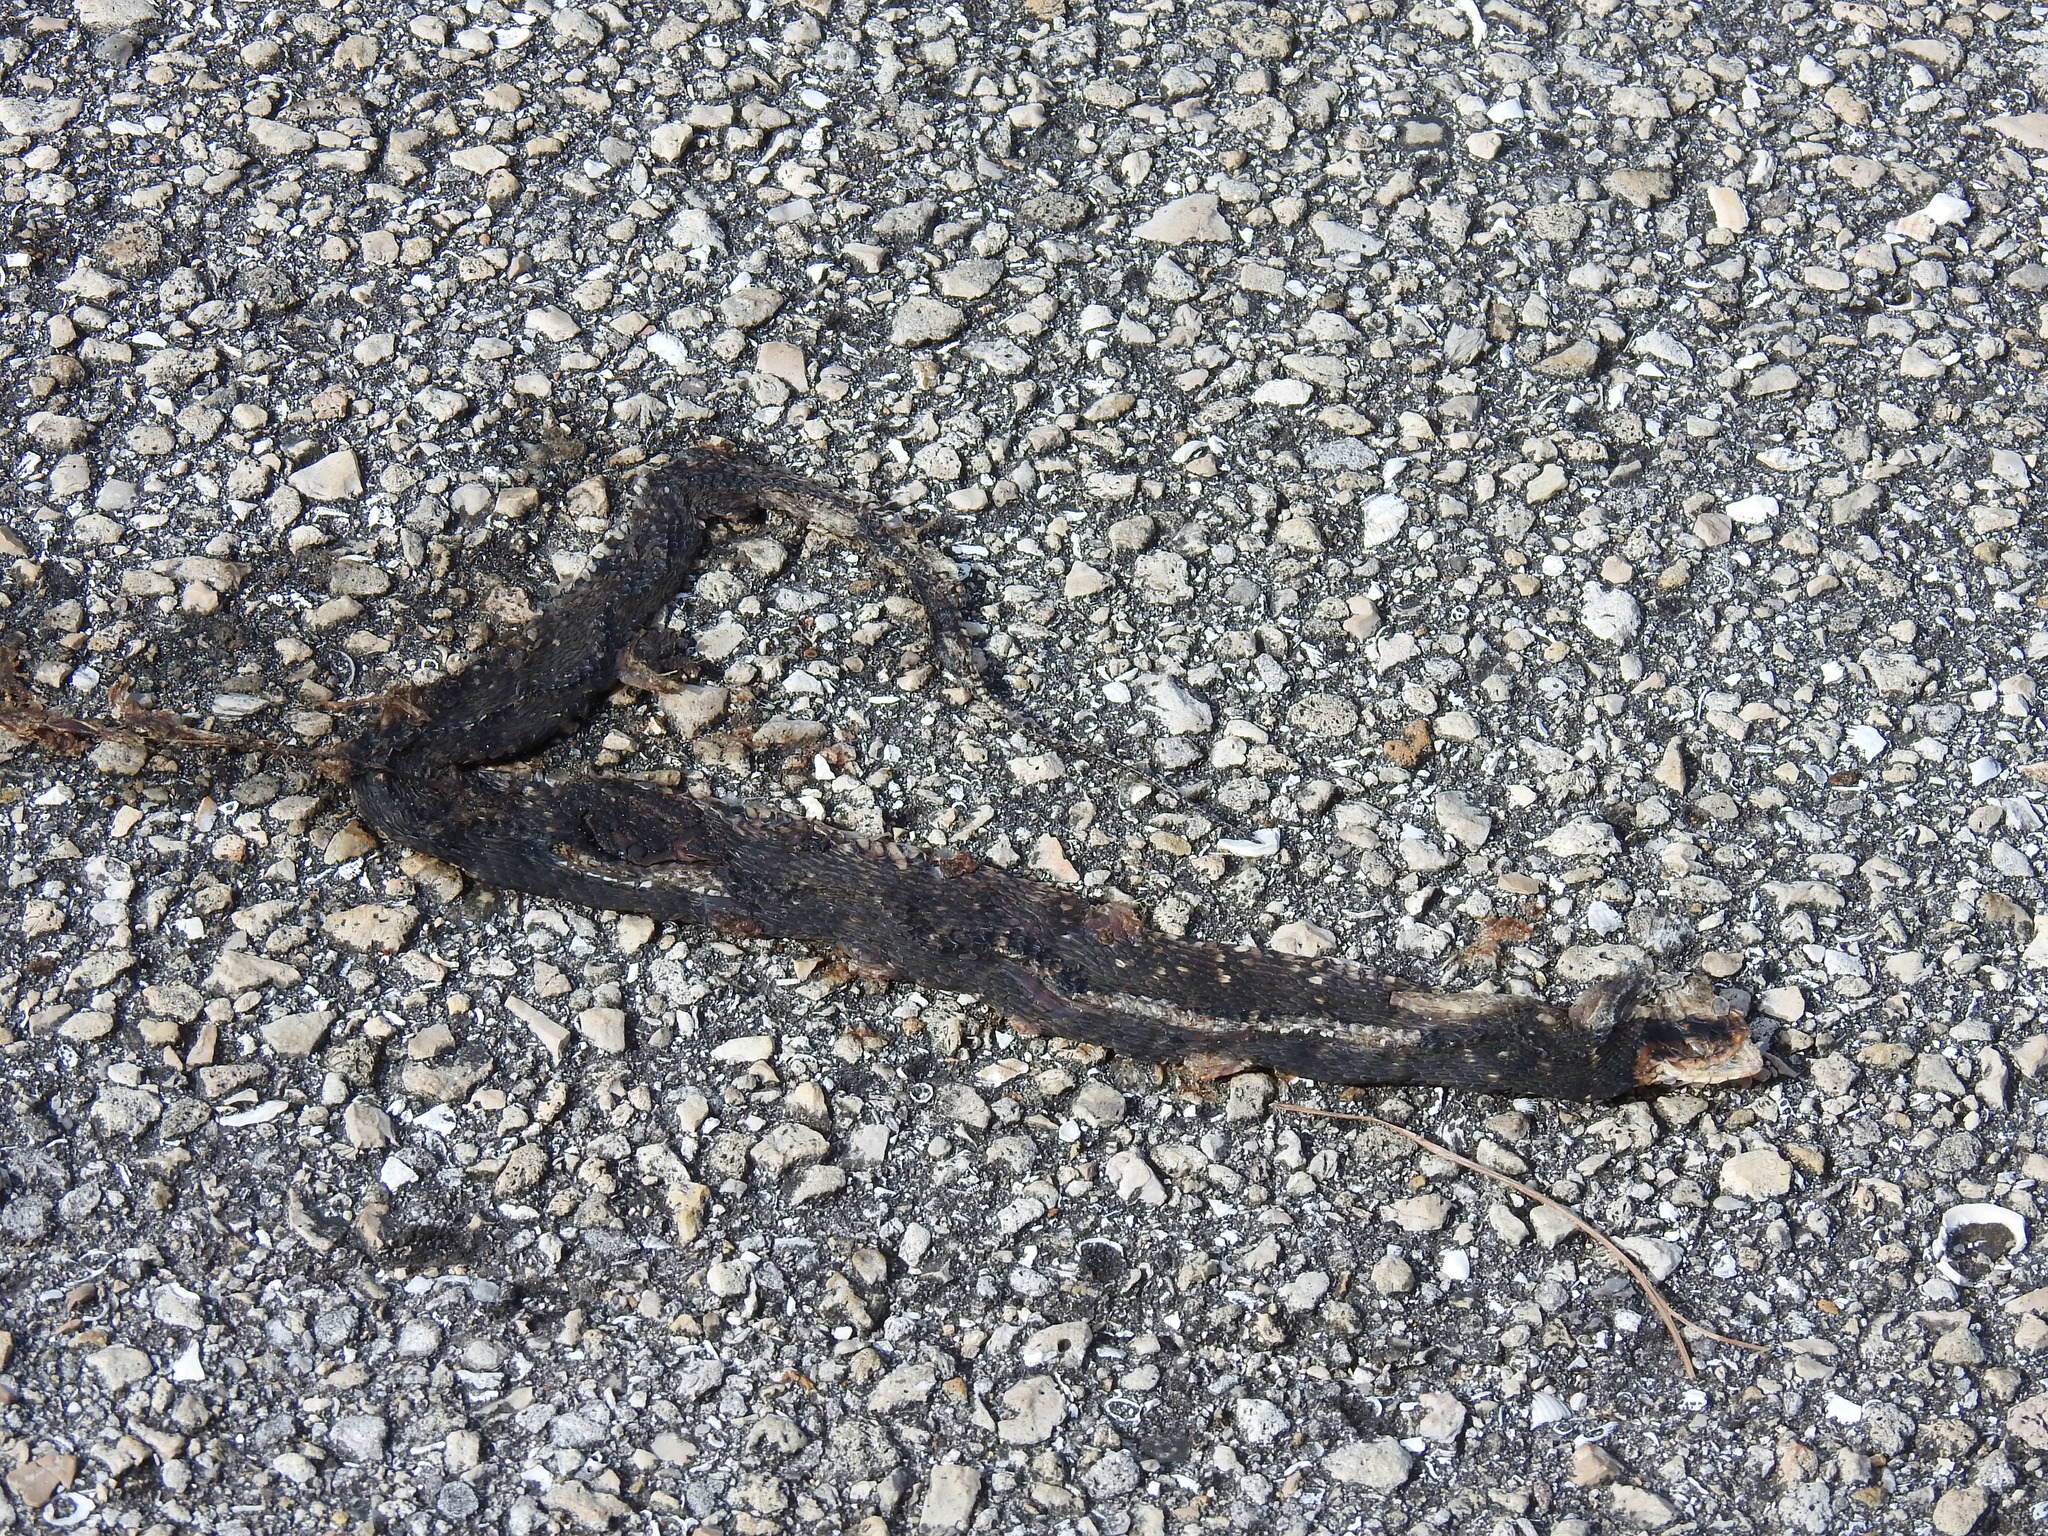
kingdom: Animalia
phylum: Chordata
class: Squamata
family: Colubridae
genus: Nerodia
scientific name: Nerodia fasciata
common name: Southern water snake
